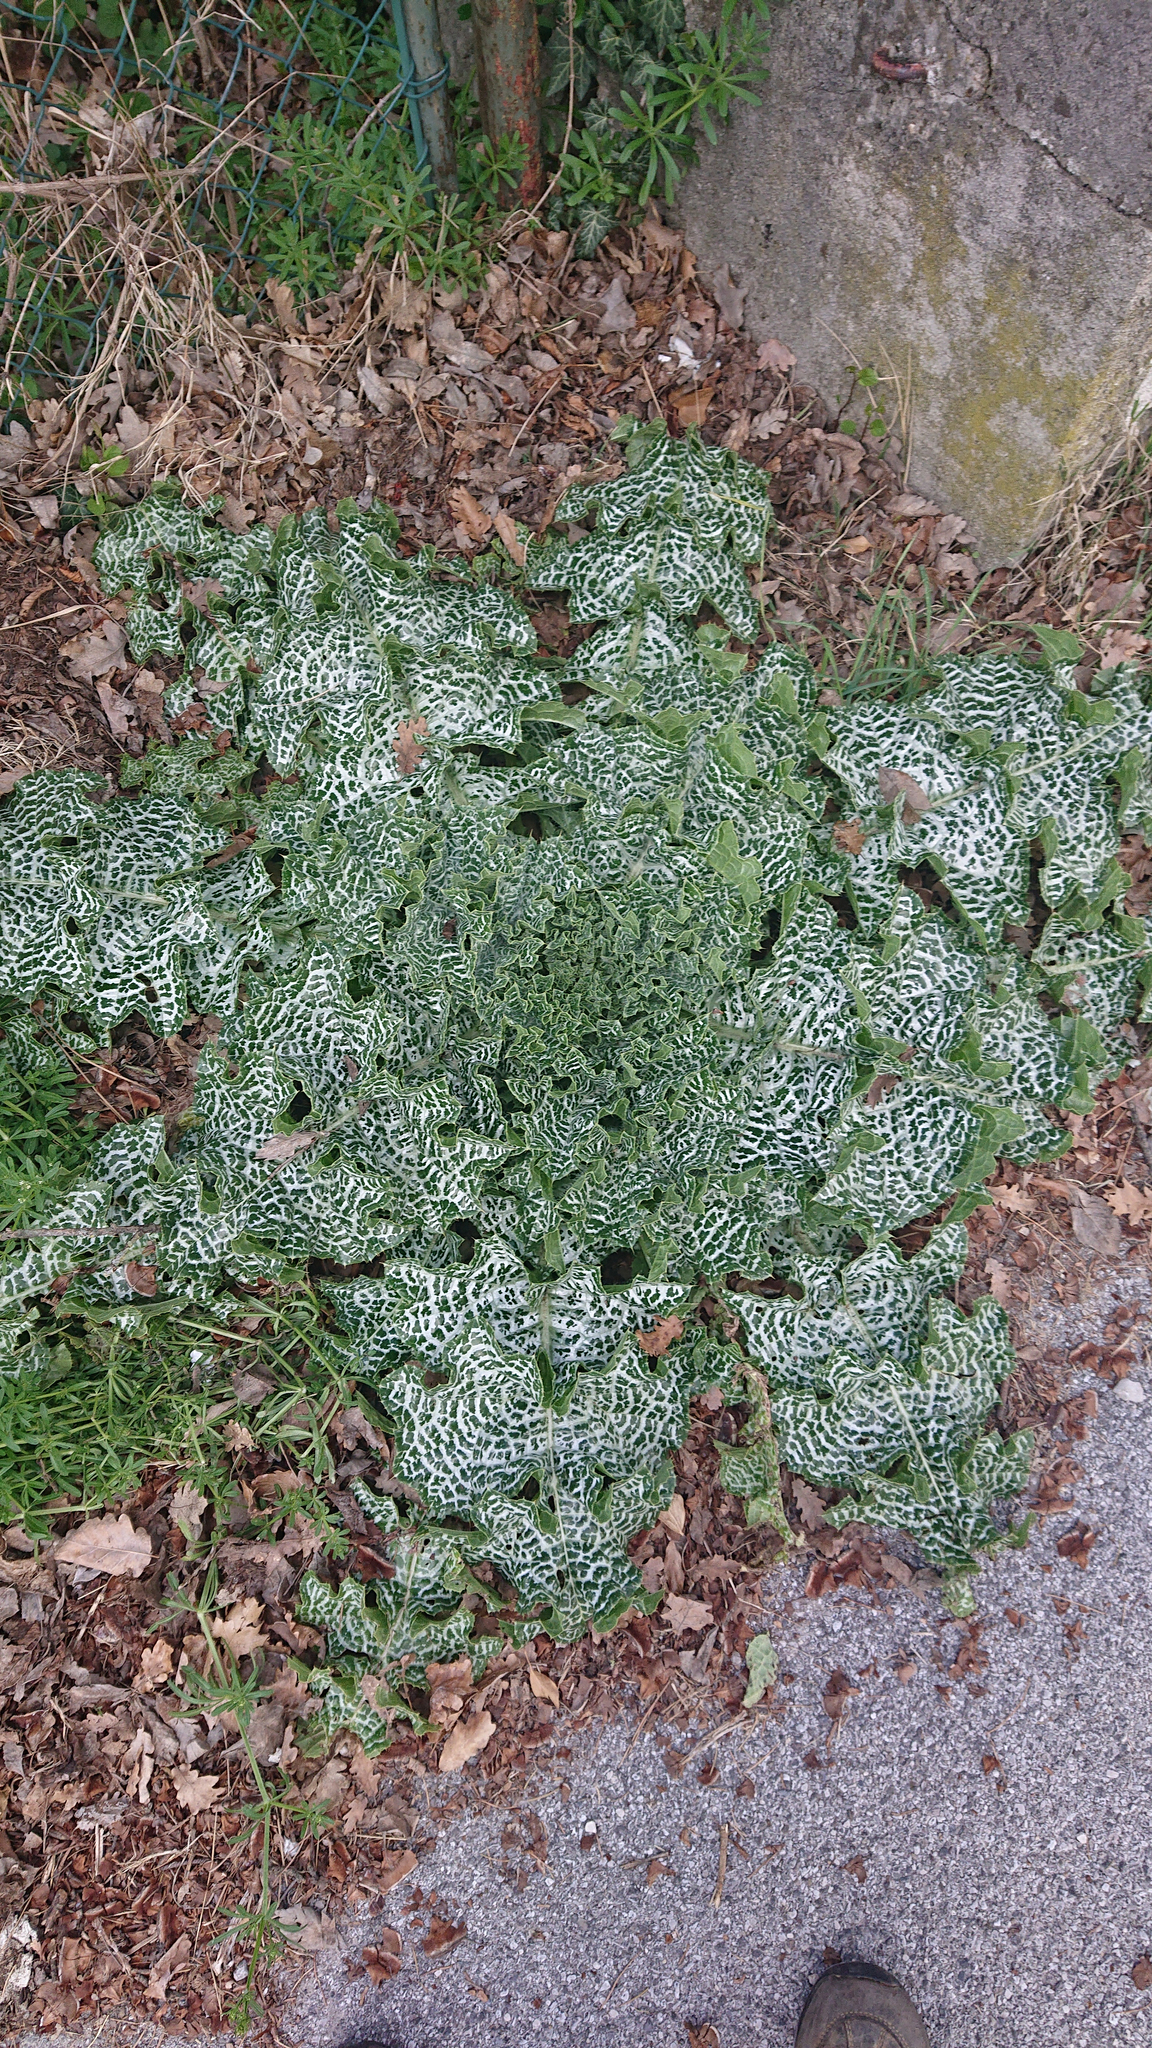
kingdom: Plantae
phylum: Tracheophyta
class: Magnoliopsida
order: Asterales
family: Asteraceae
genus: Silybum
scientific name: Silybum marianum
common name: Milk thistle
